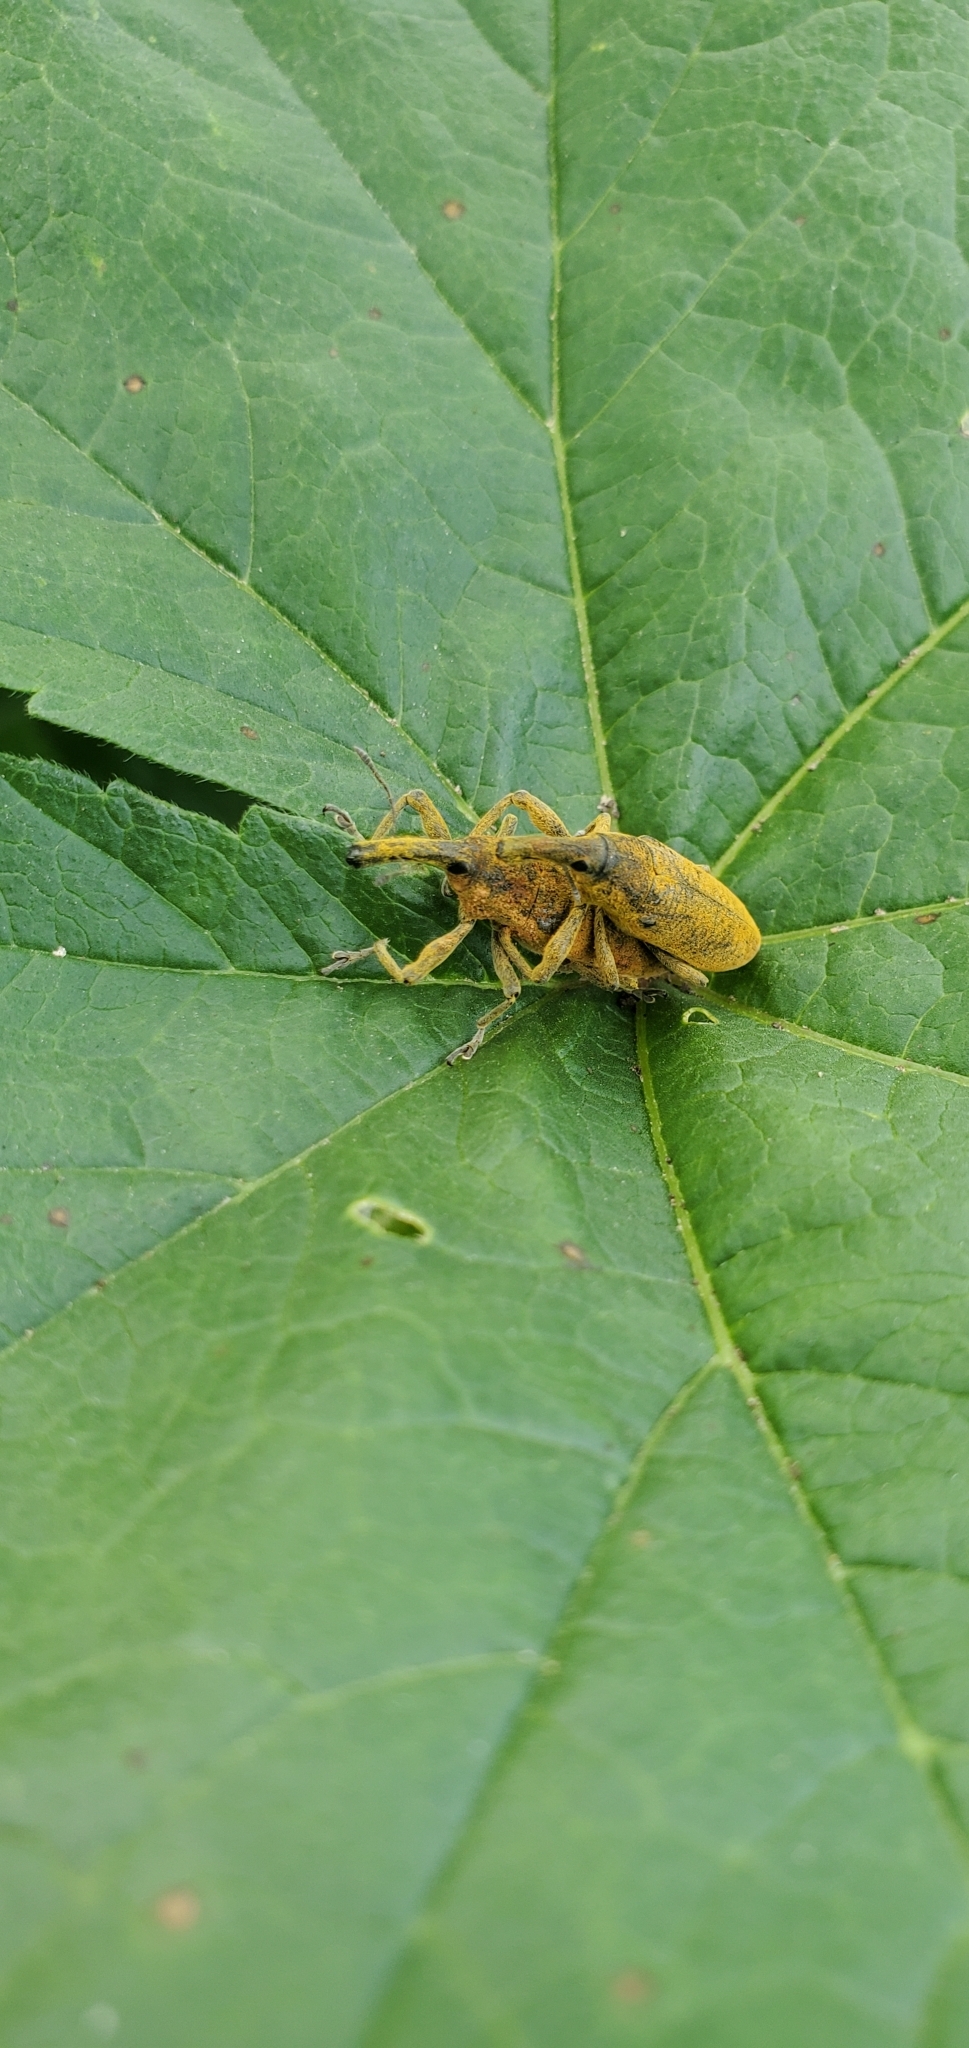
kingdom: Animalia
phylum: Arthropoda
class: Insecta
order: Coleoptera
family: Curculionidae
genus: Lixus
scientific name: Lixus pulverulentus
